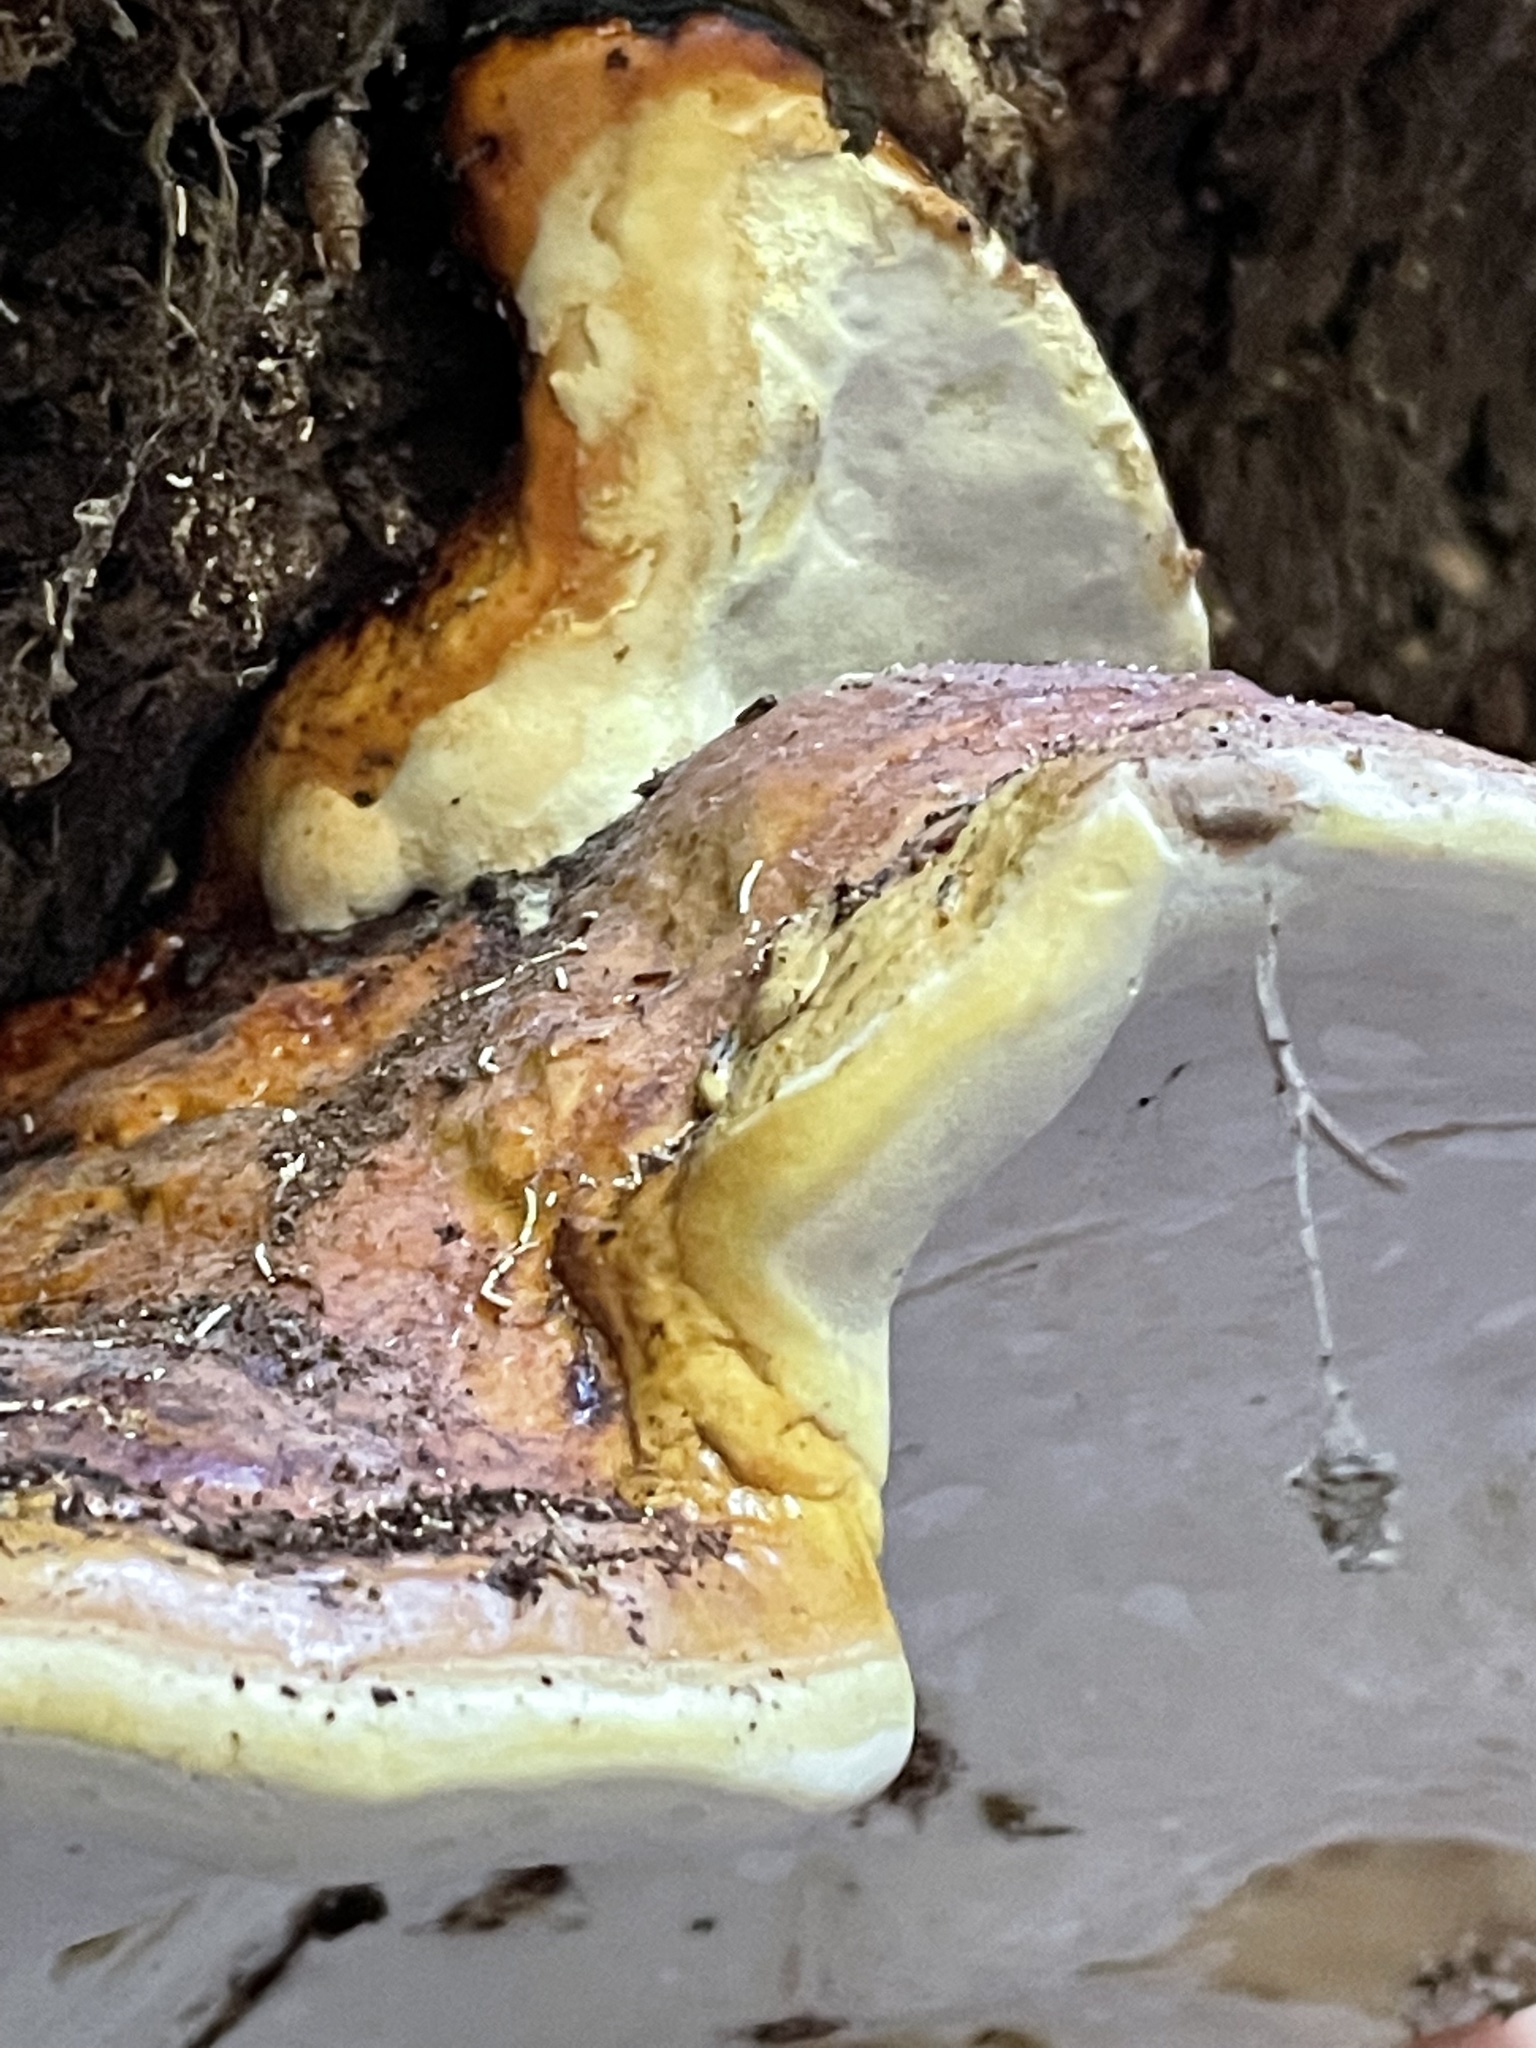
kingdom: Fungi
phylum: Basidiomycota
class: Agaricomycetes
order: Polyporales
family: Fomitopsidaceae
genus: Fomitopsis
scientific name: Fomitopsis mounceae
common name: Northern red belt
